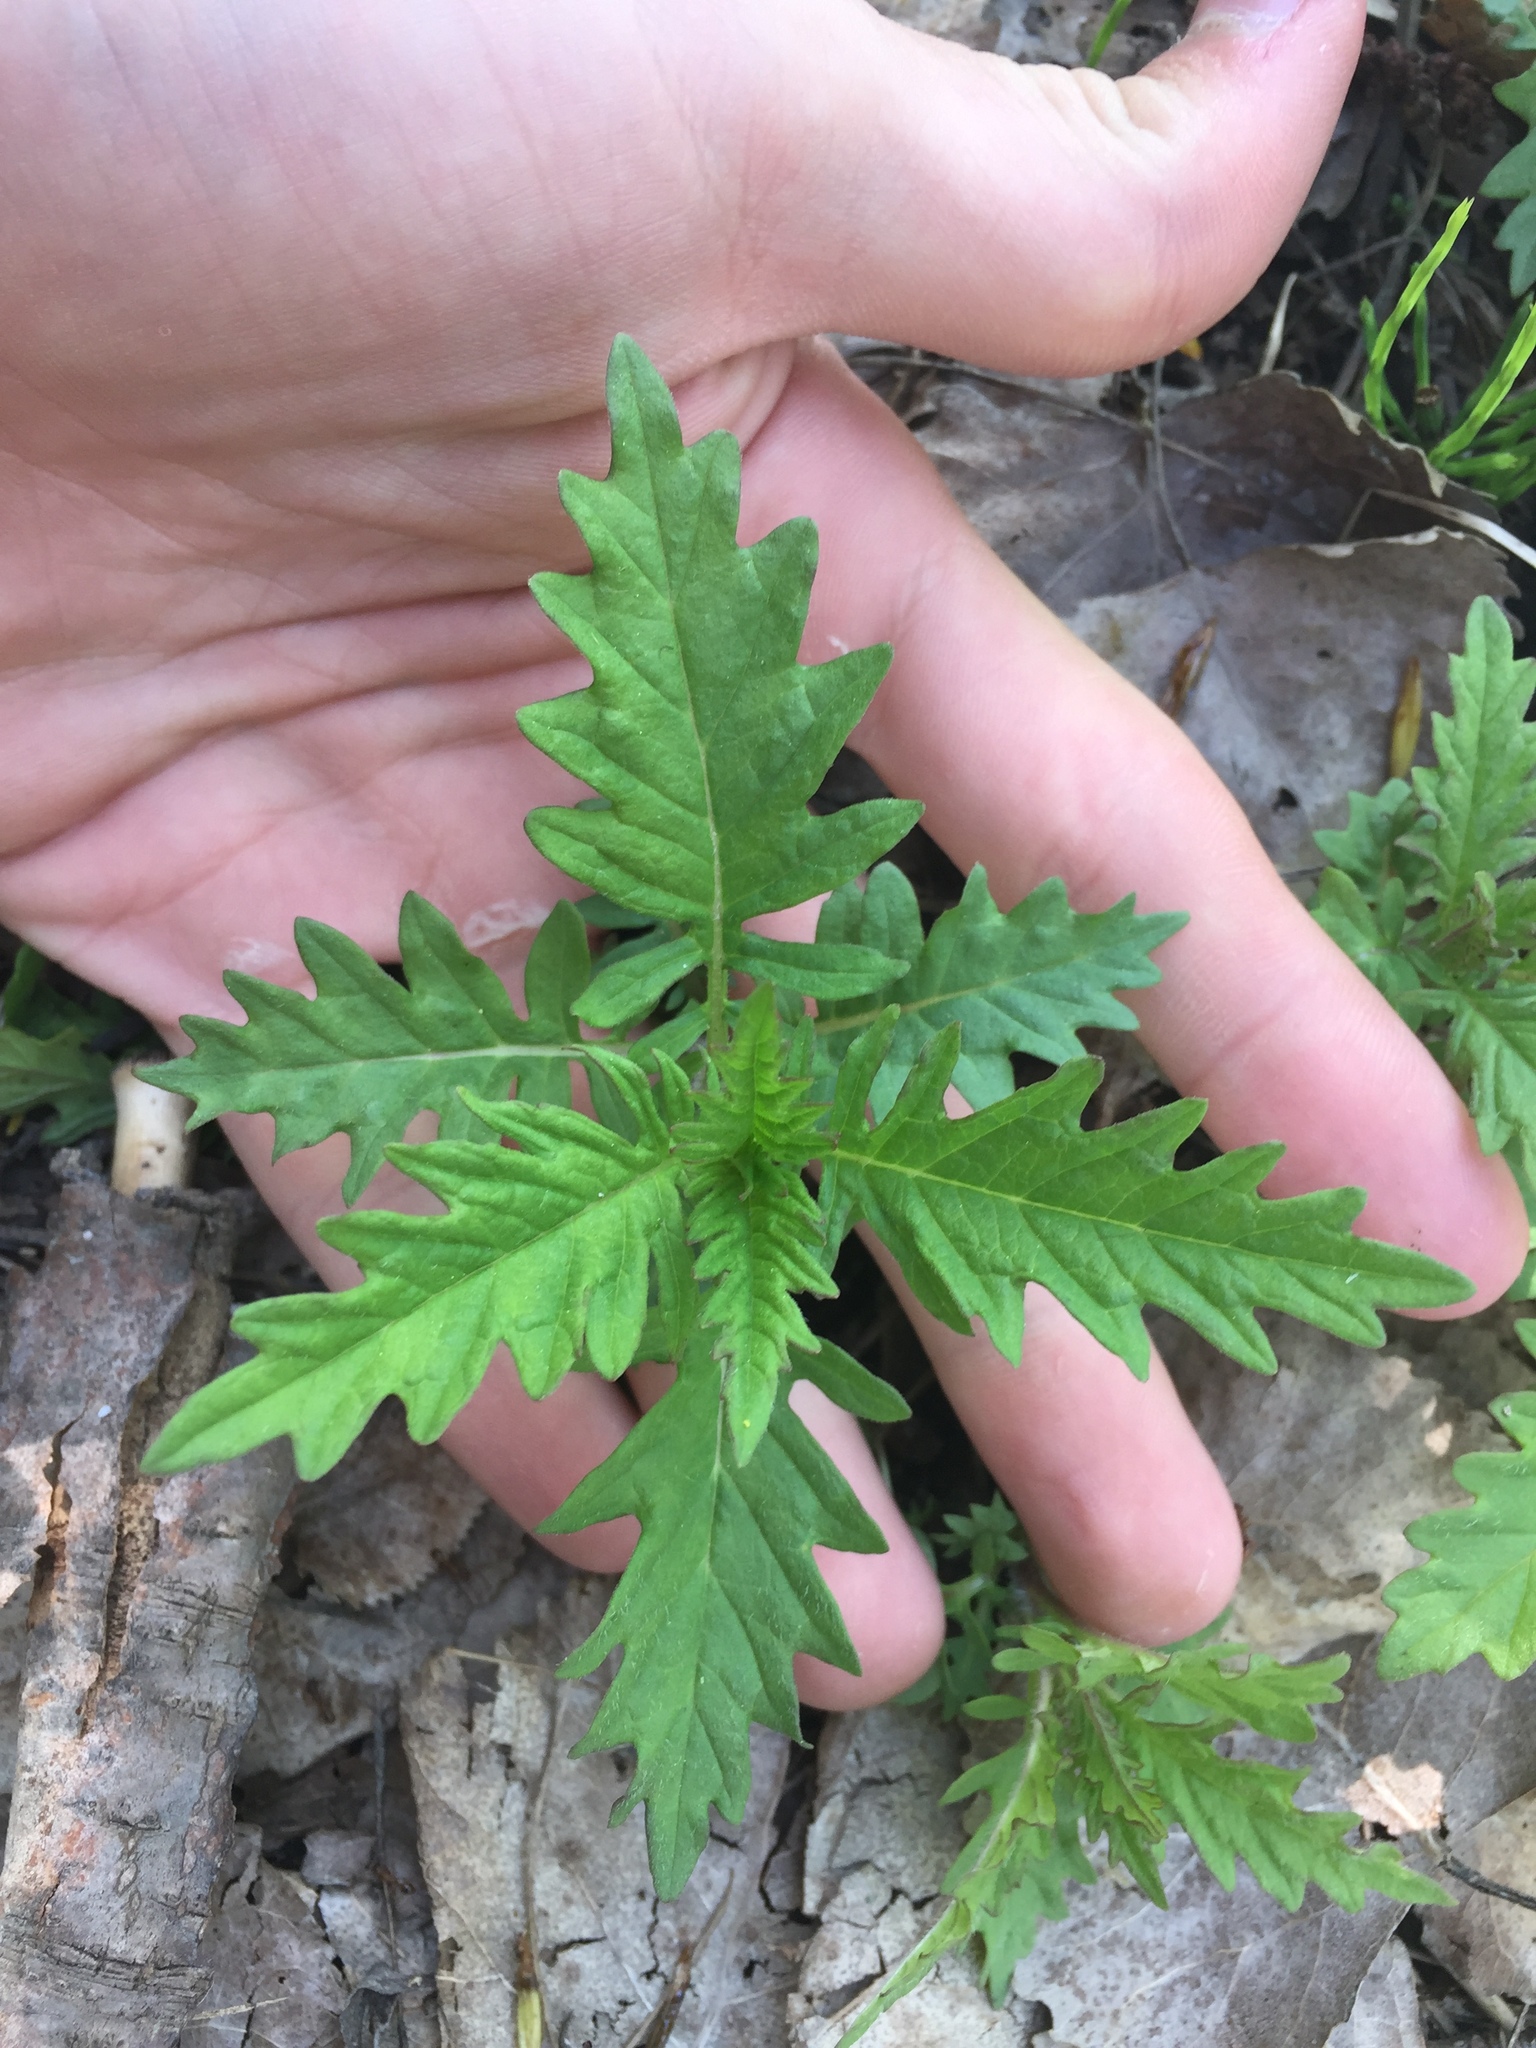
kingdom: Plantae
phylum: Tracheophyta
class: Magnoliopsida
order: Lamiales
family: Lamiaceae
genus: Lycopus
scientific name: Lycopus americanus
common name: American bugleweed
